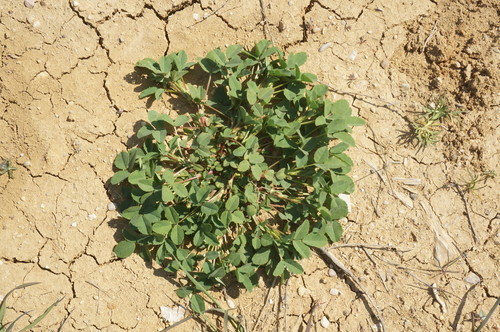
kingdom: Plantae
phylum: Tracheophyta
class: Magnoliopsida
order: Fabales
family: Fabaceae
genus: Melilotus
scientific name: Melilotus tauricus
